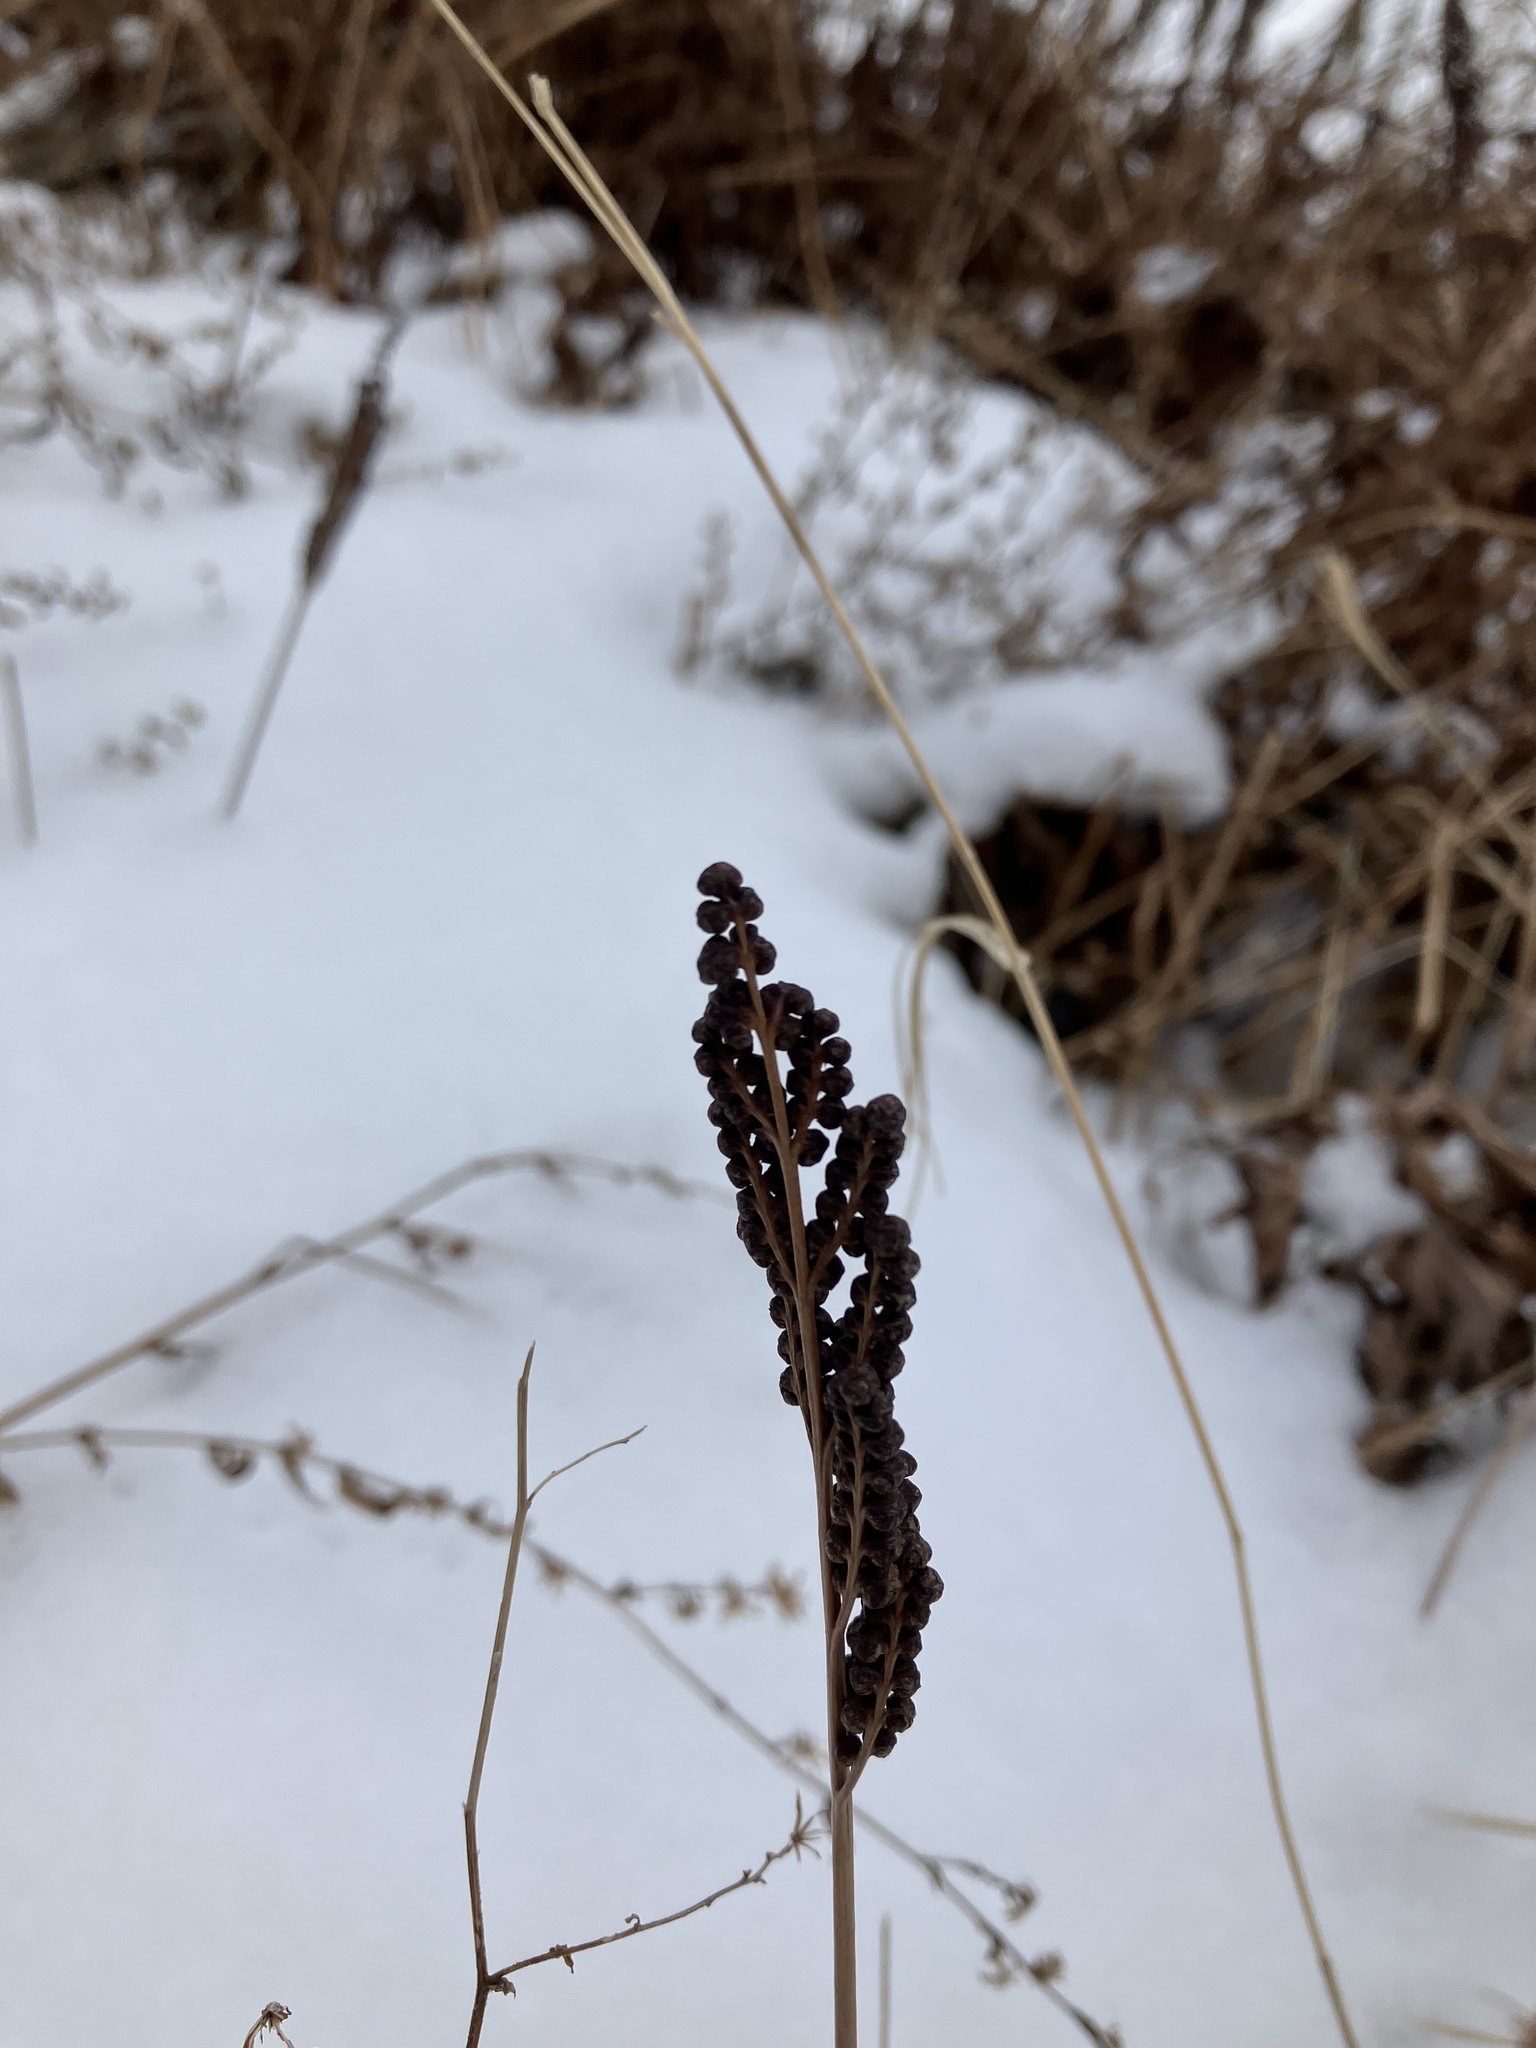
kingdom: Plantae
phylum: Tracheophyta
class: Polypodiopsida
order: Polypodiales
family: Onocleaceae
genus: Onoclea
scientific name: Onoclea sensibilis
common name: Sensitive fern
